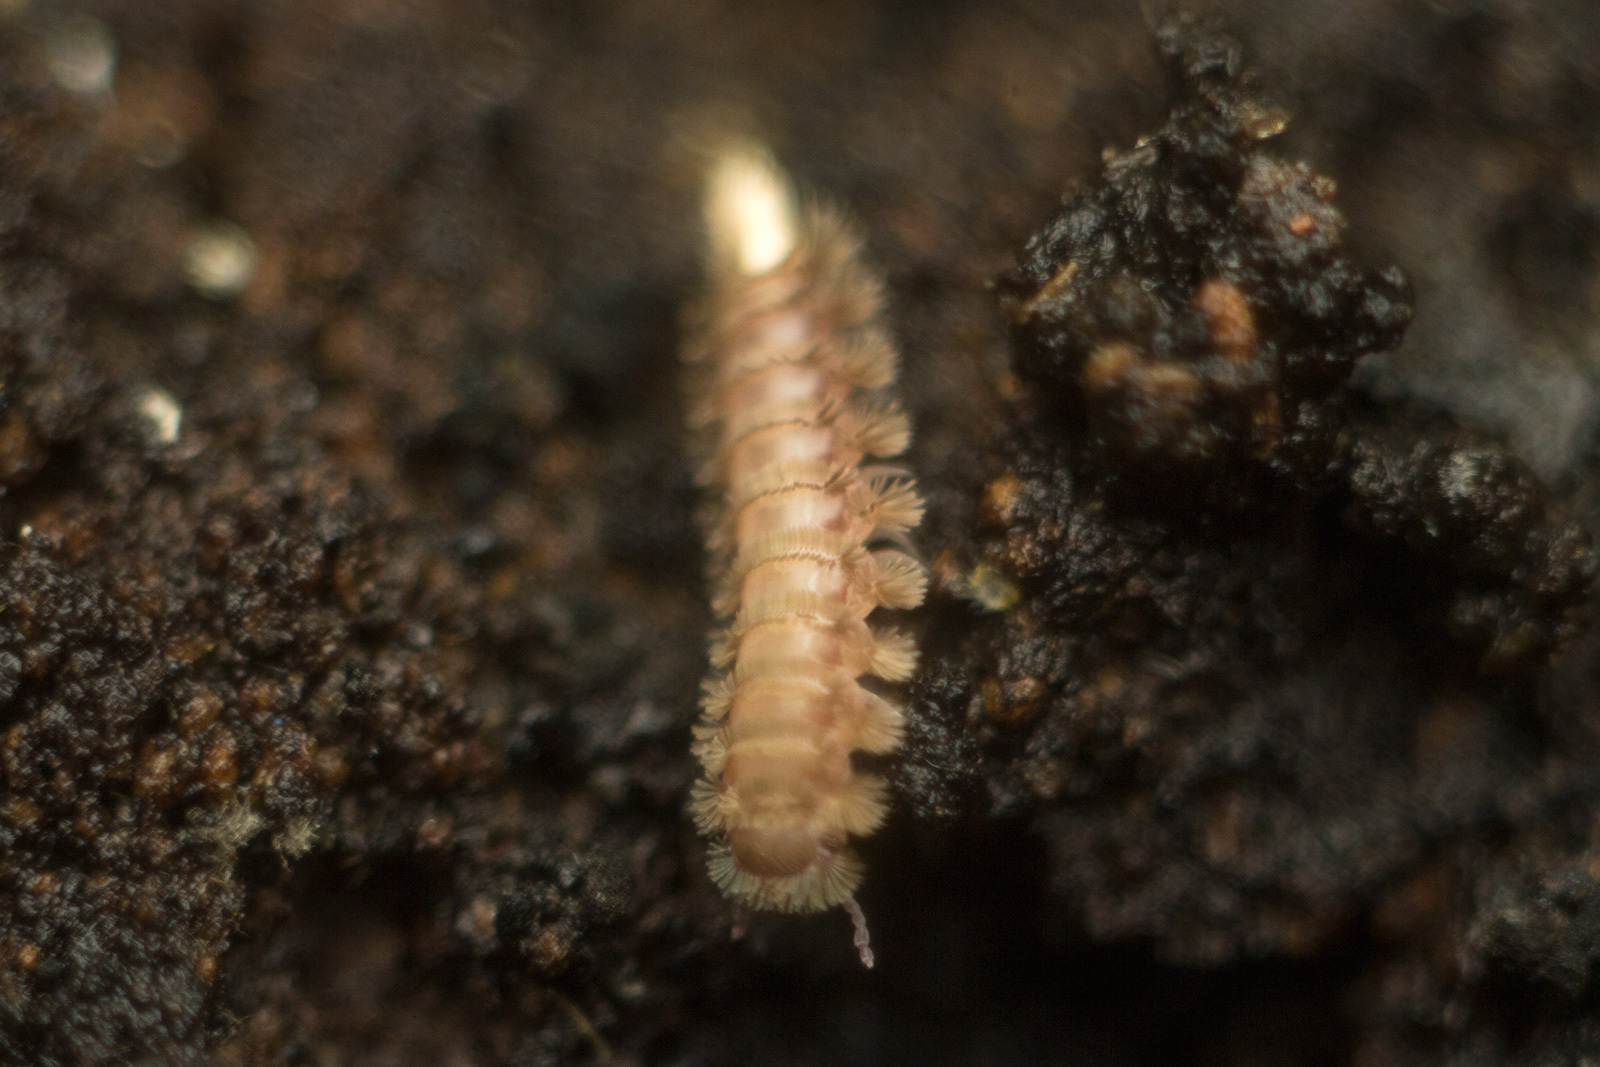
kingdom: Animalia
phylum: Arthropoda
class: Diplopoda
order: Polyxenida
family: Polyxenidae
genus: Polyxenus
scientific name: Polyxenus lagurus
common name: Bristly millipede
